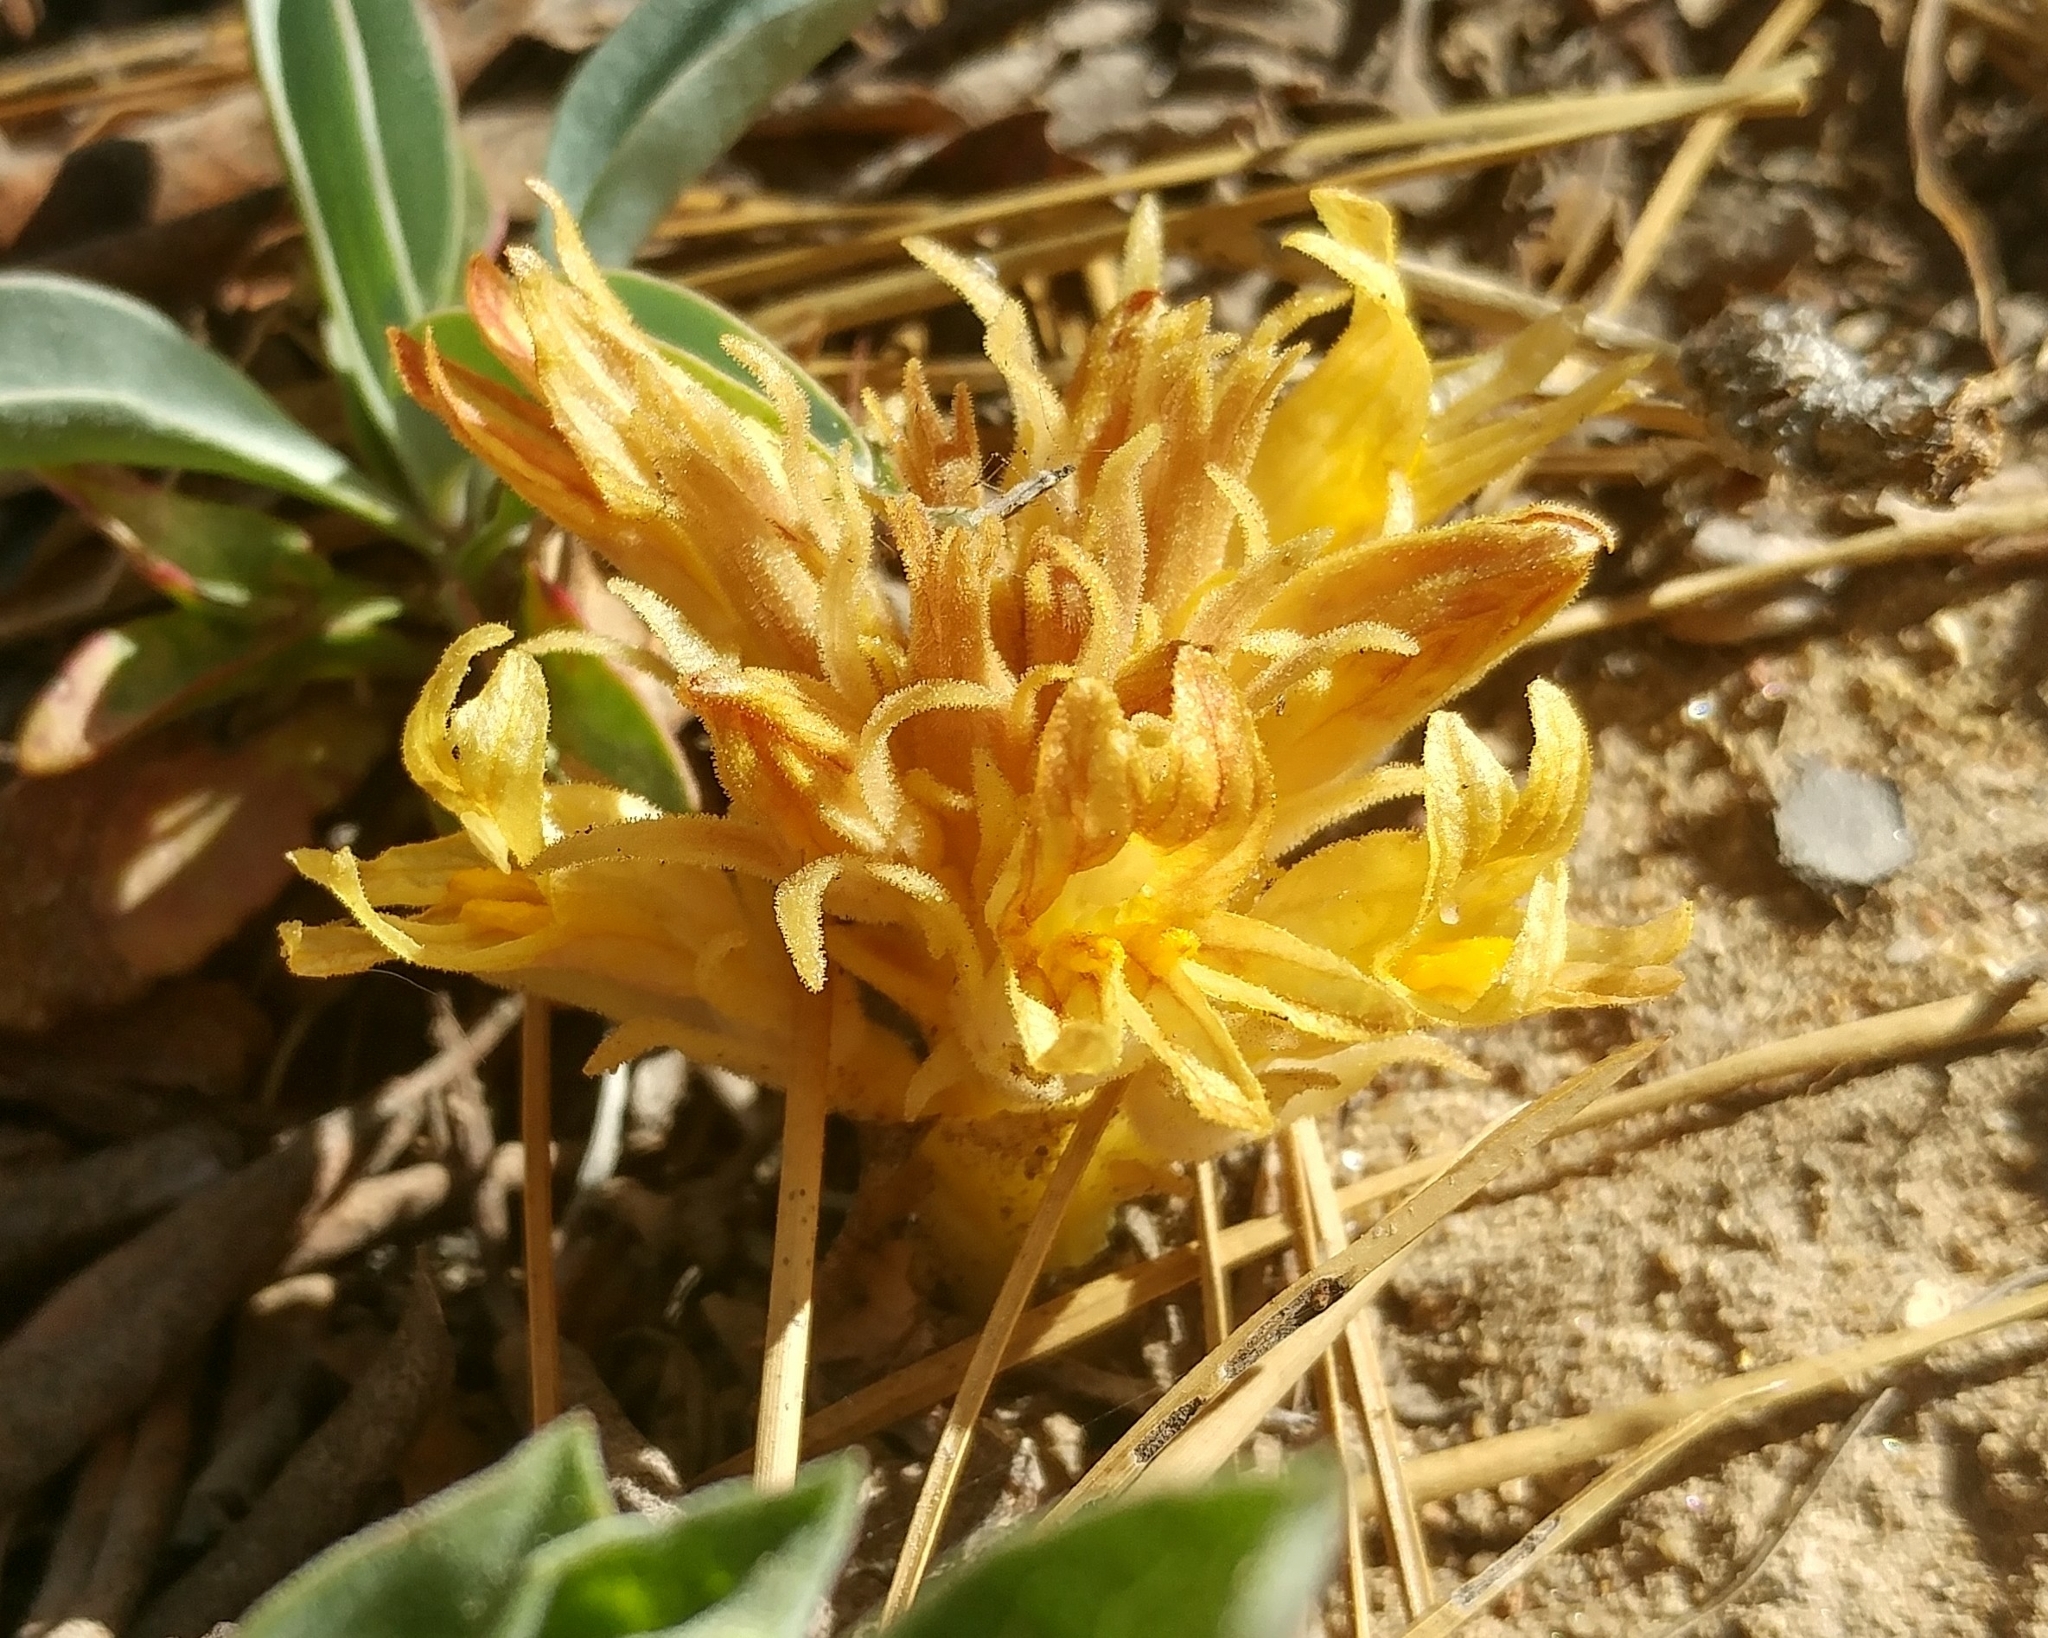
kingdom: Plantae
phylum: Tracheophyta
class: Magnoliopsida
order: Lamiales
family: Orobanchaceae
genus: Aphyllon
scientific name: Aphyllon californicum
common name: California broomrape
